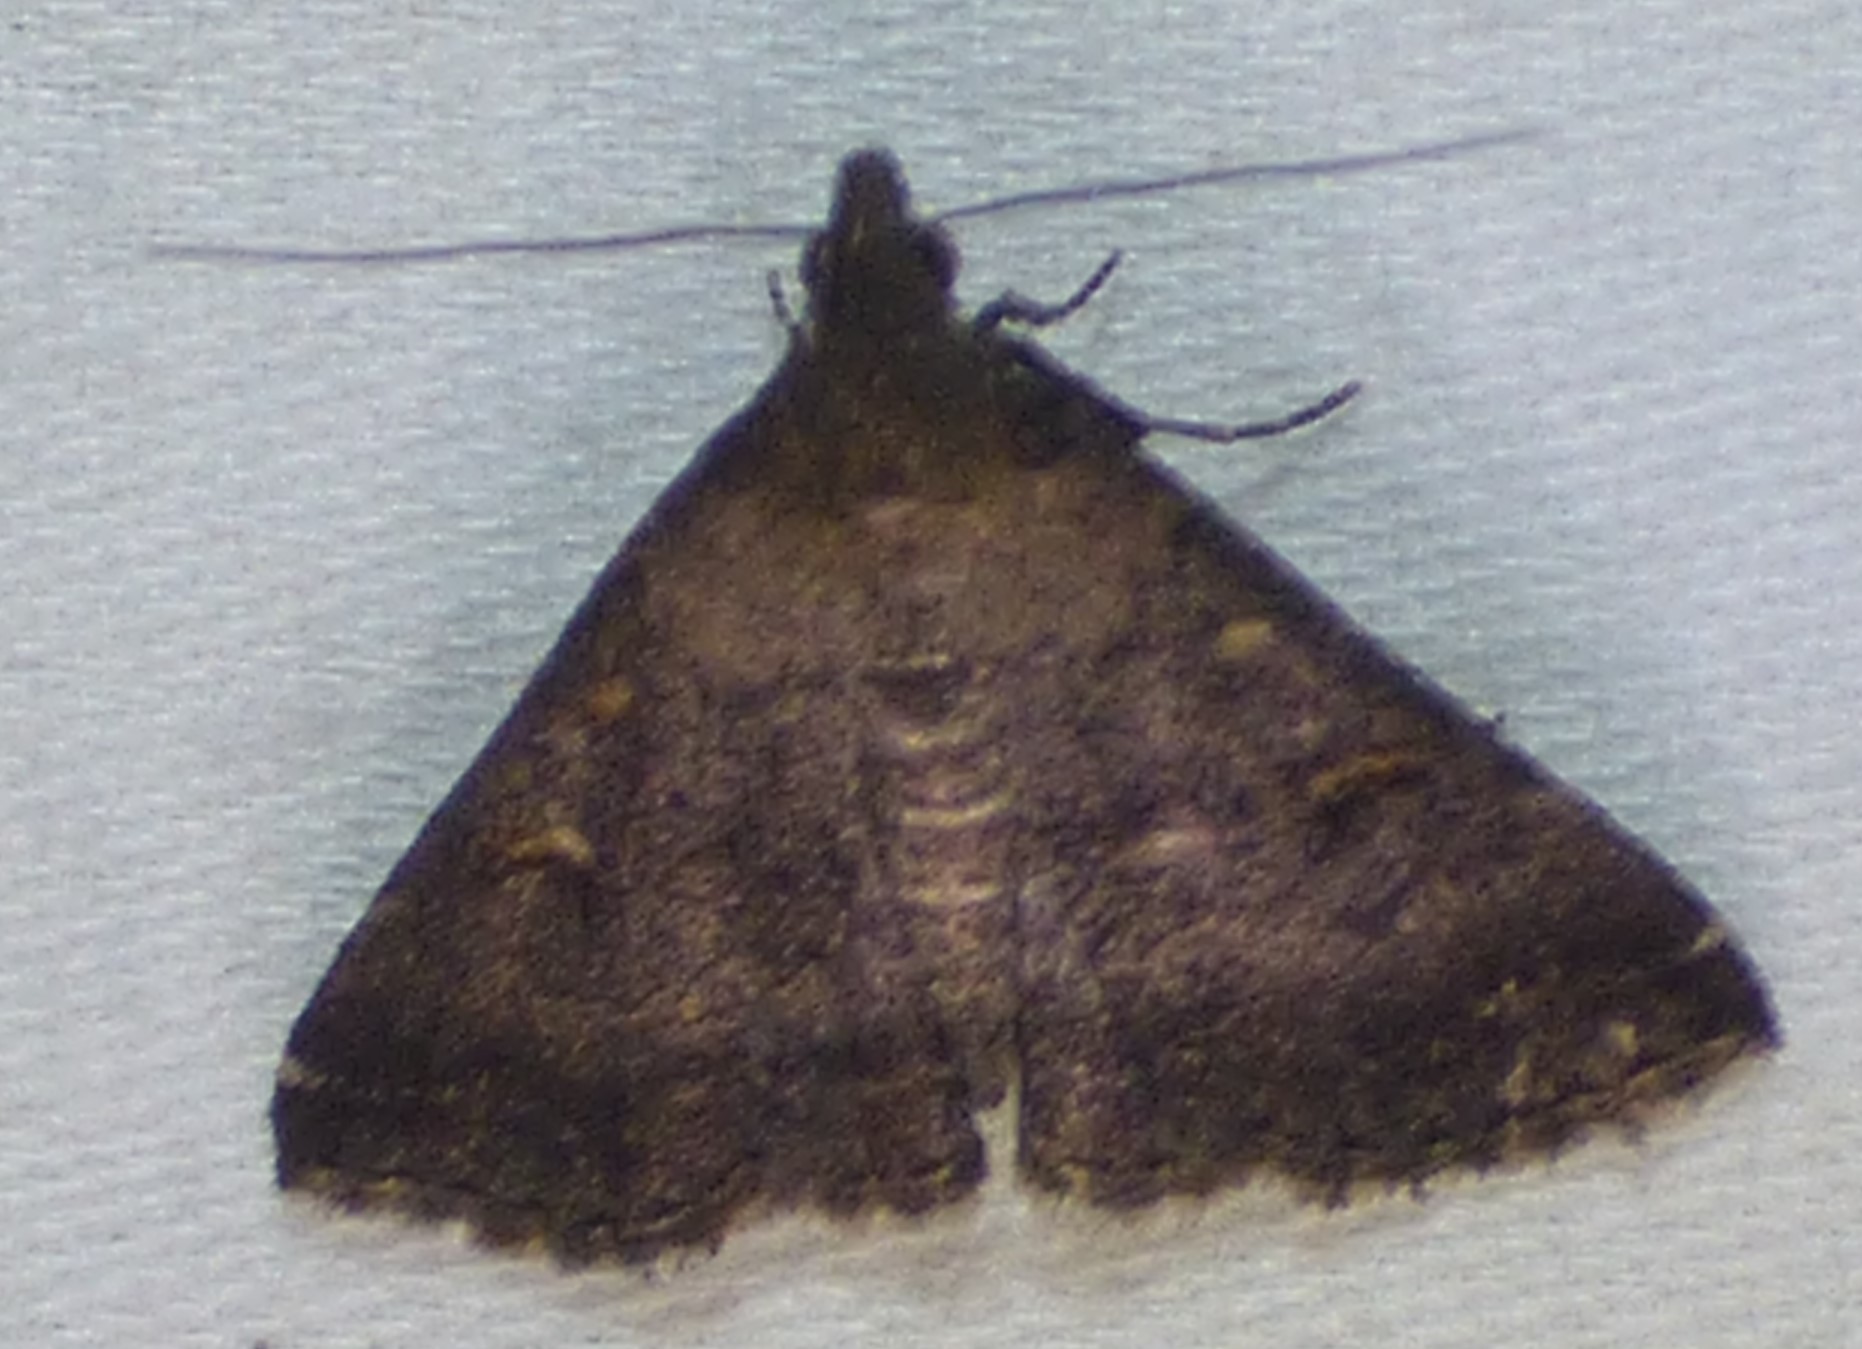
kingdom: Animalia
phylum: Arthropoda
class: Insecta
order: Lepidoptera
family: Erebidae
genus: Tetanolita
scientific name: Tetanolita mynesalis
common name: Smoky tetanolita moth
